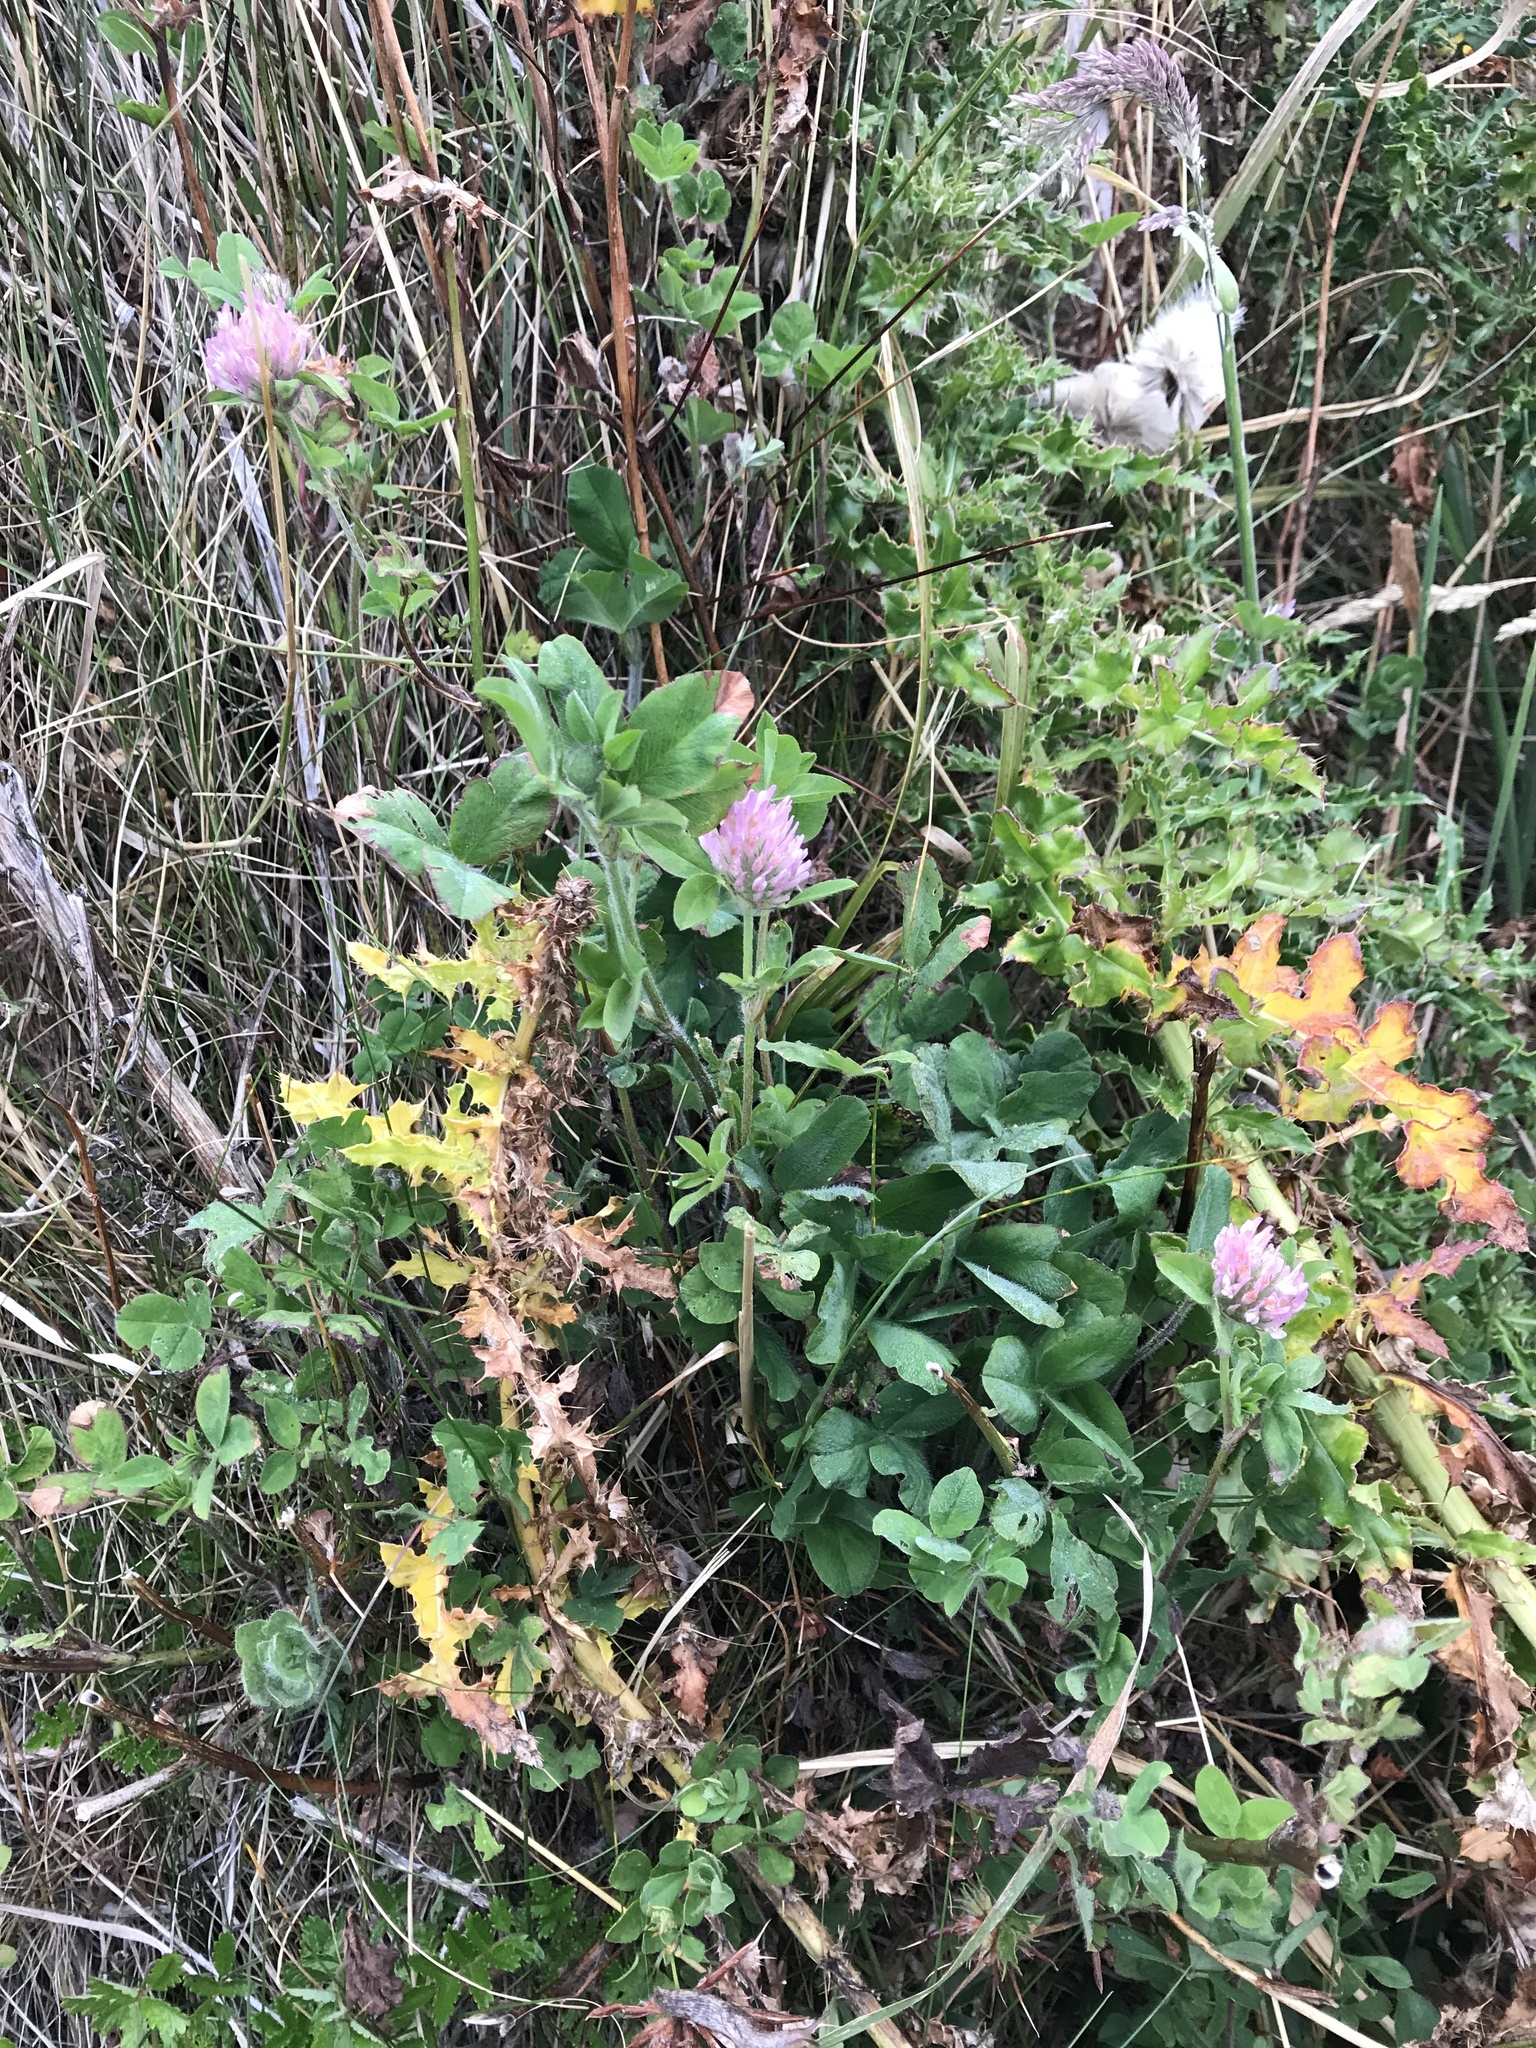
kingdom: Plantae
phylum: Tracheophyta
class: Magnoliopsida
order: Fabales
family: Fabaceae
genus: Trifolium
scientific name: Trifolium pratense
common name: Red clover
